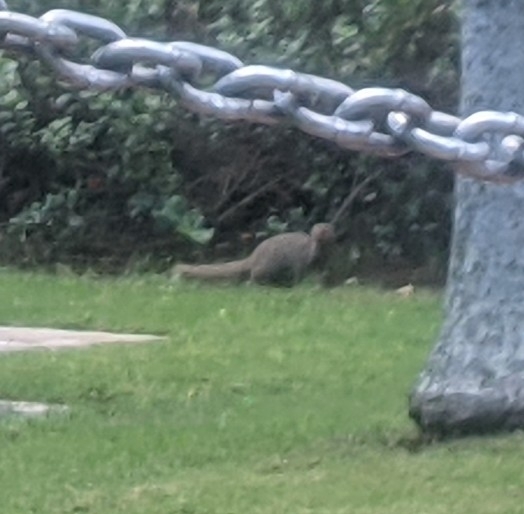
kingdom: Animalia
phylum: Chordata
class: Mammalia
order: Carnivora
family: Herpestidae
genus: Herpestes
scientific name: Herpestes javanicus
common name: Small asian mongoose
